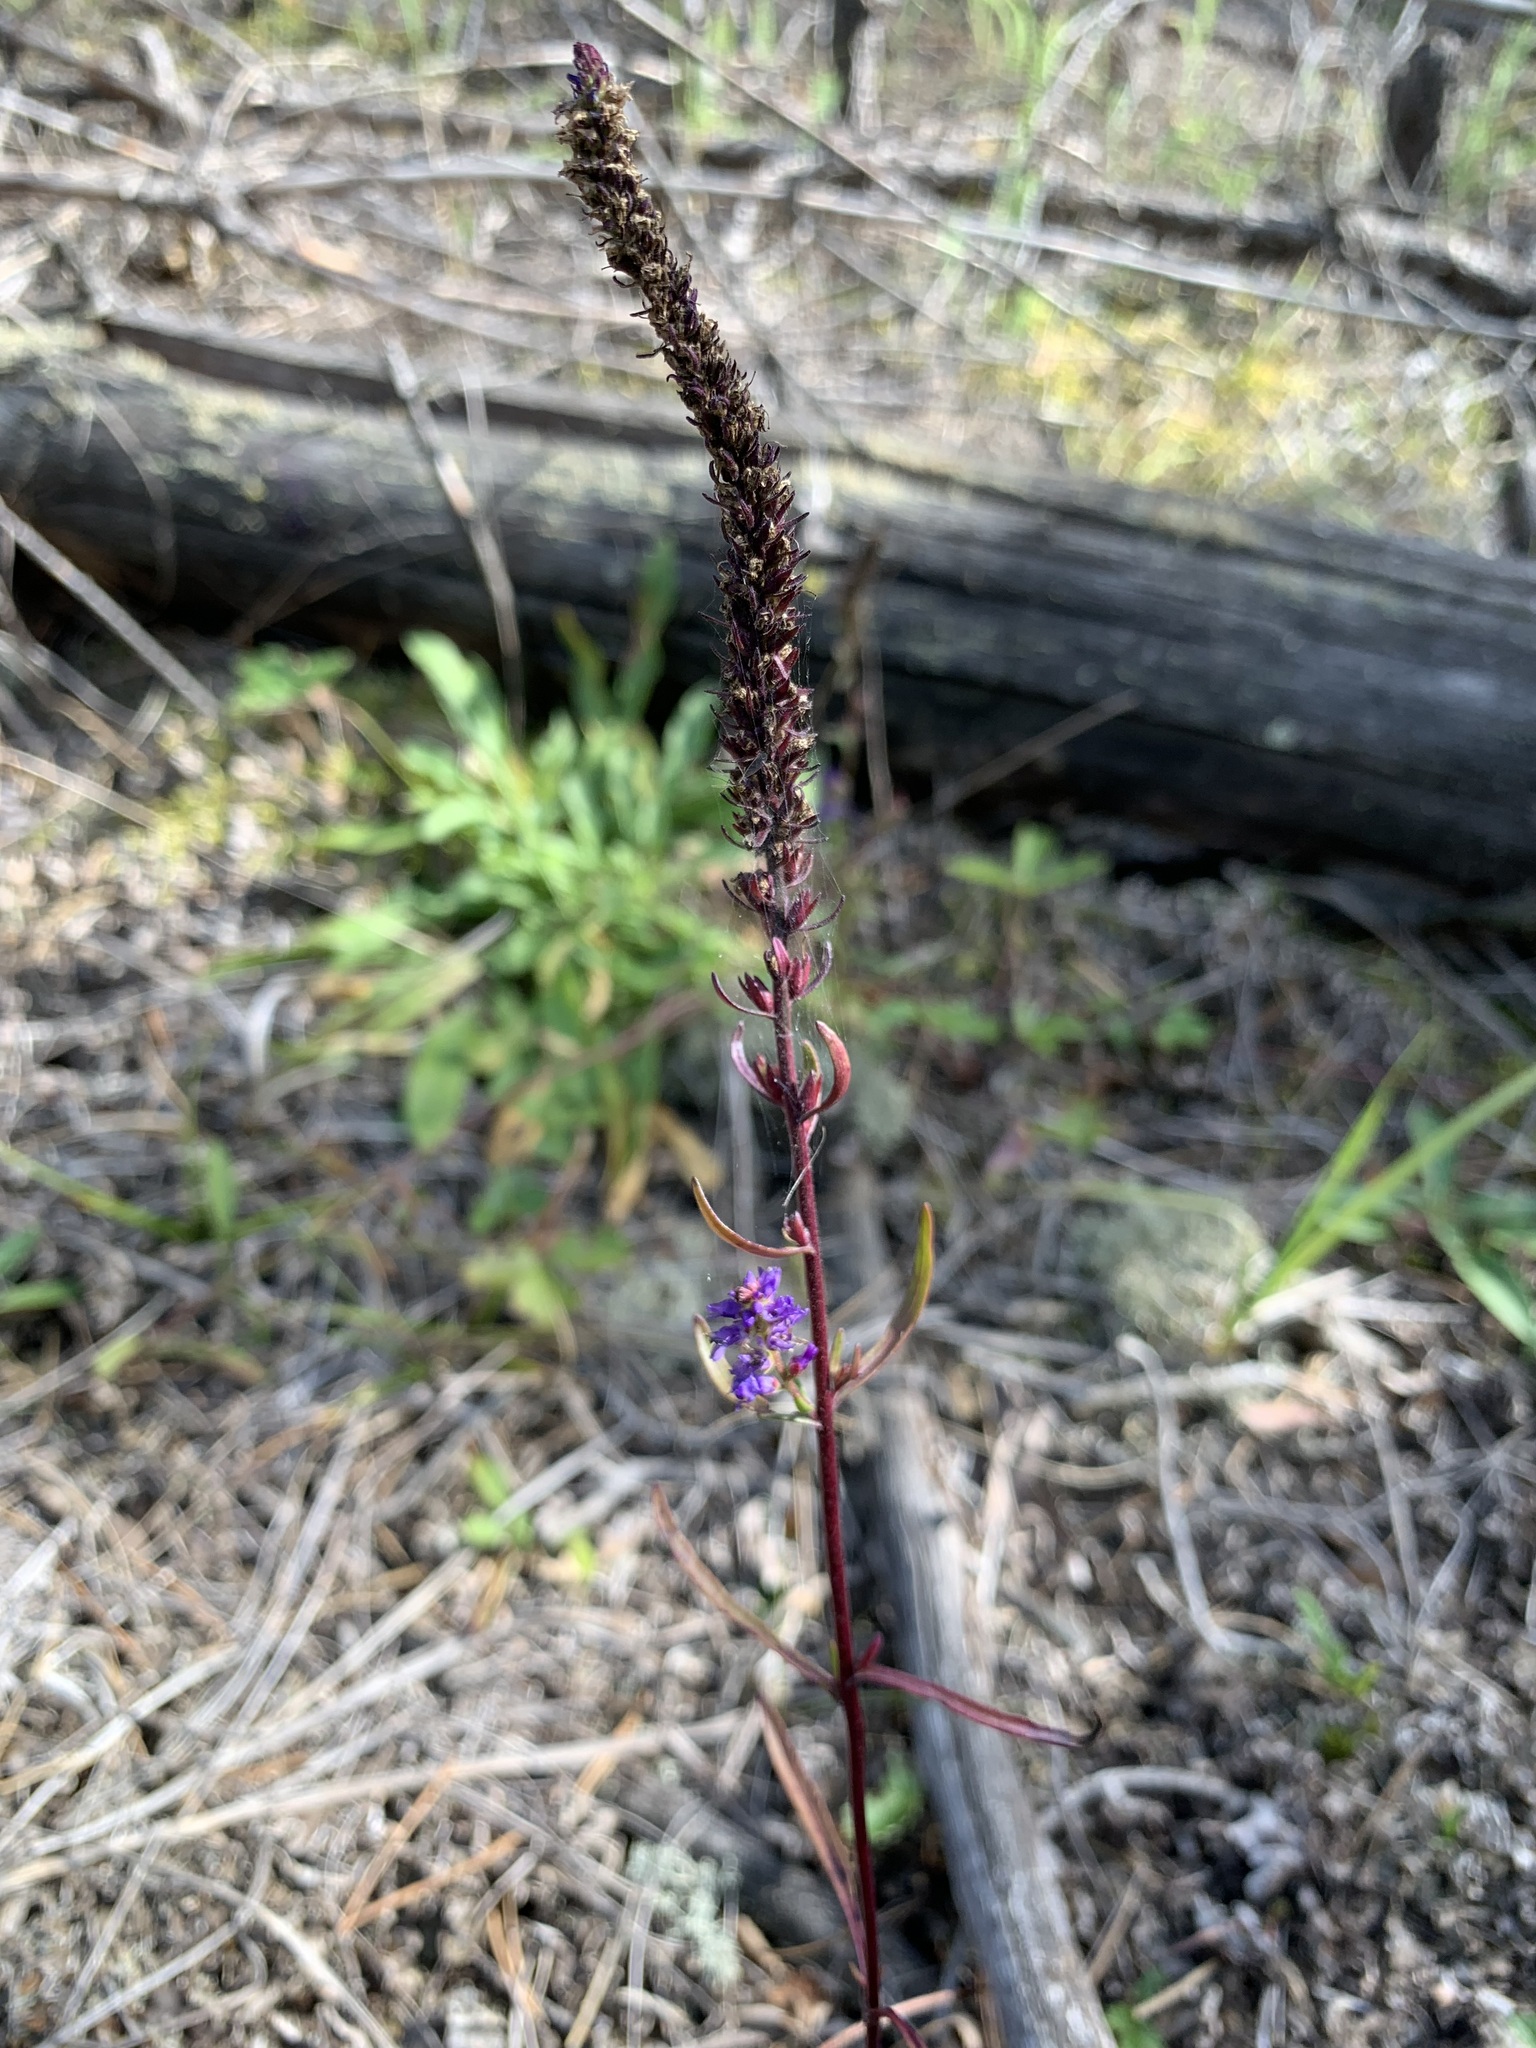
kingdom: Plantae
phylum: Tracheophyta
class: Magnoliopsida
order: Lamiales
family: Plantaginaceae
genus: Veronica
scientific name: Veronica spicata
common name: Spiked speedwell
